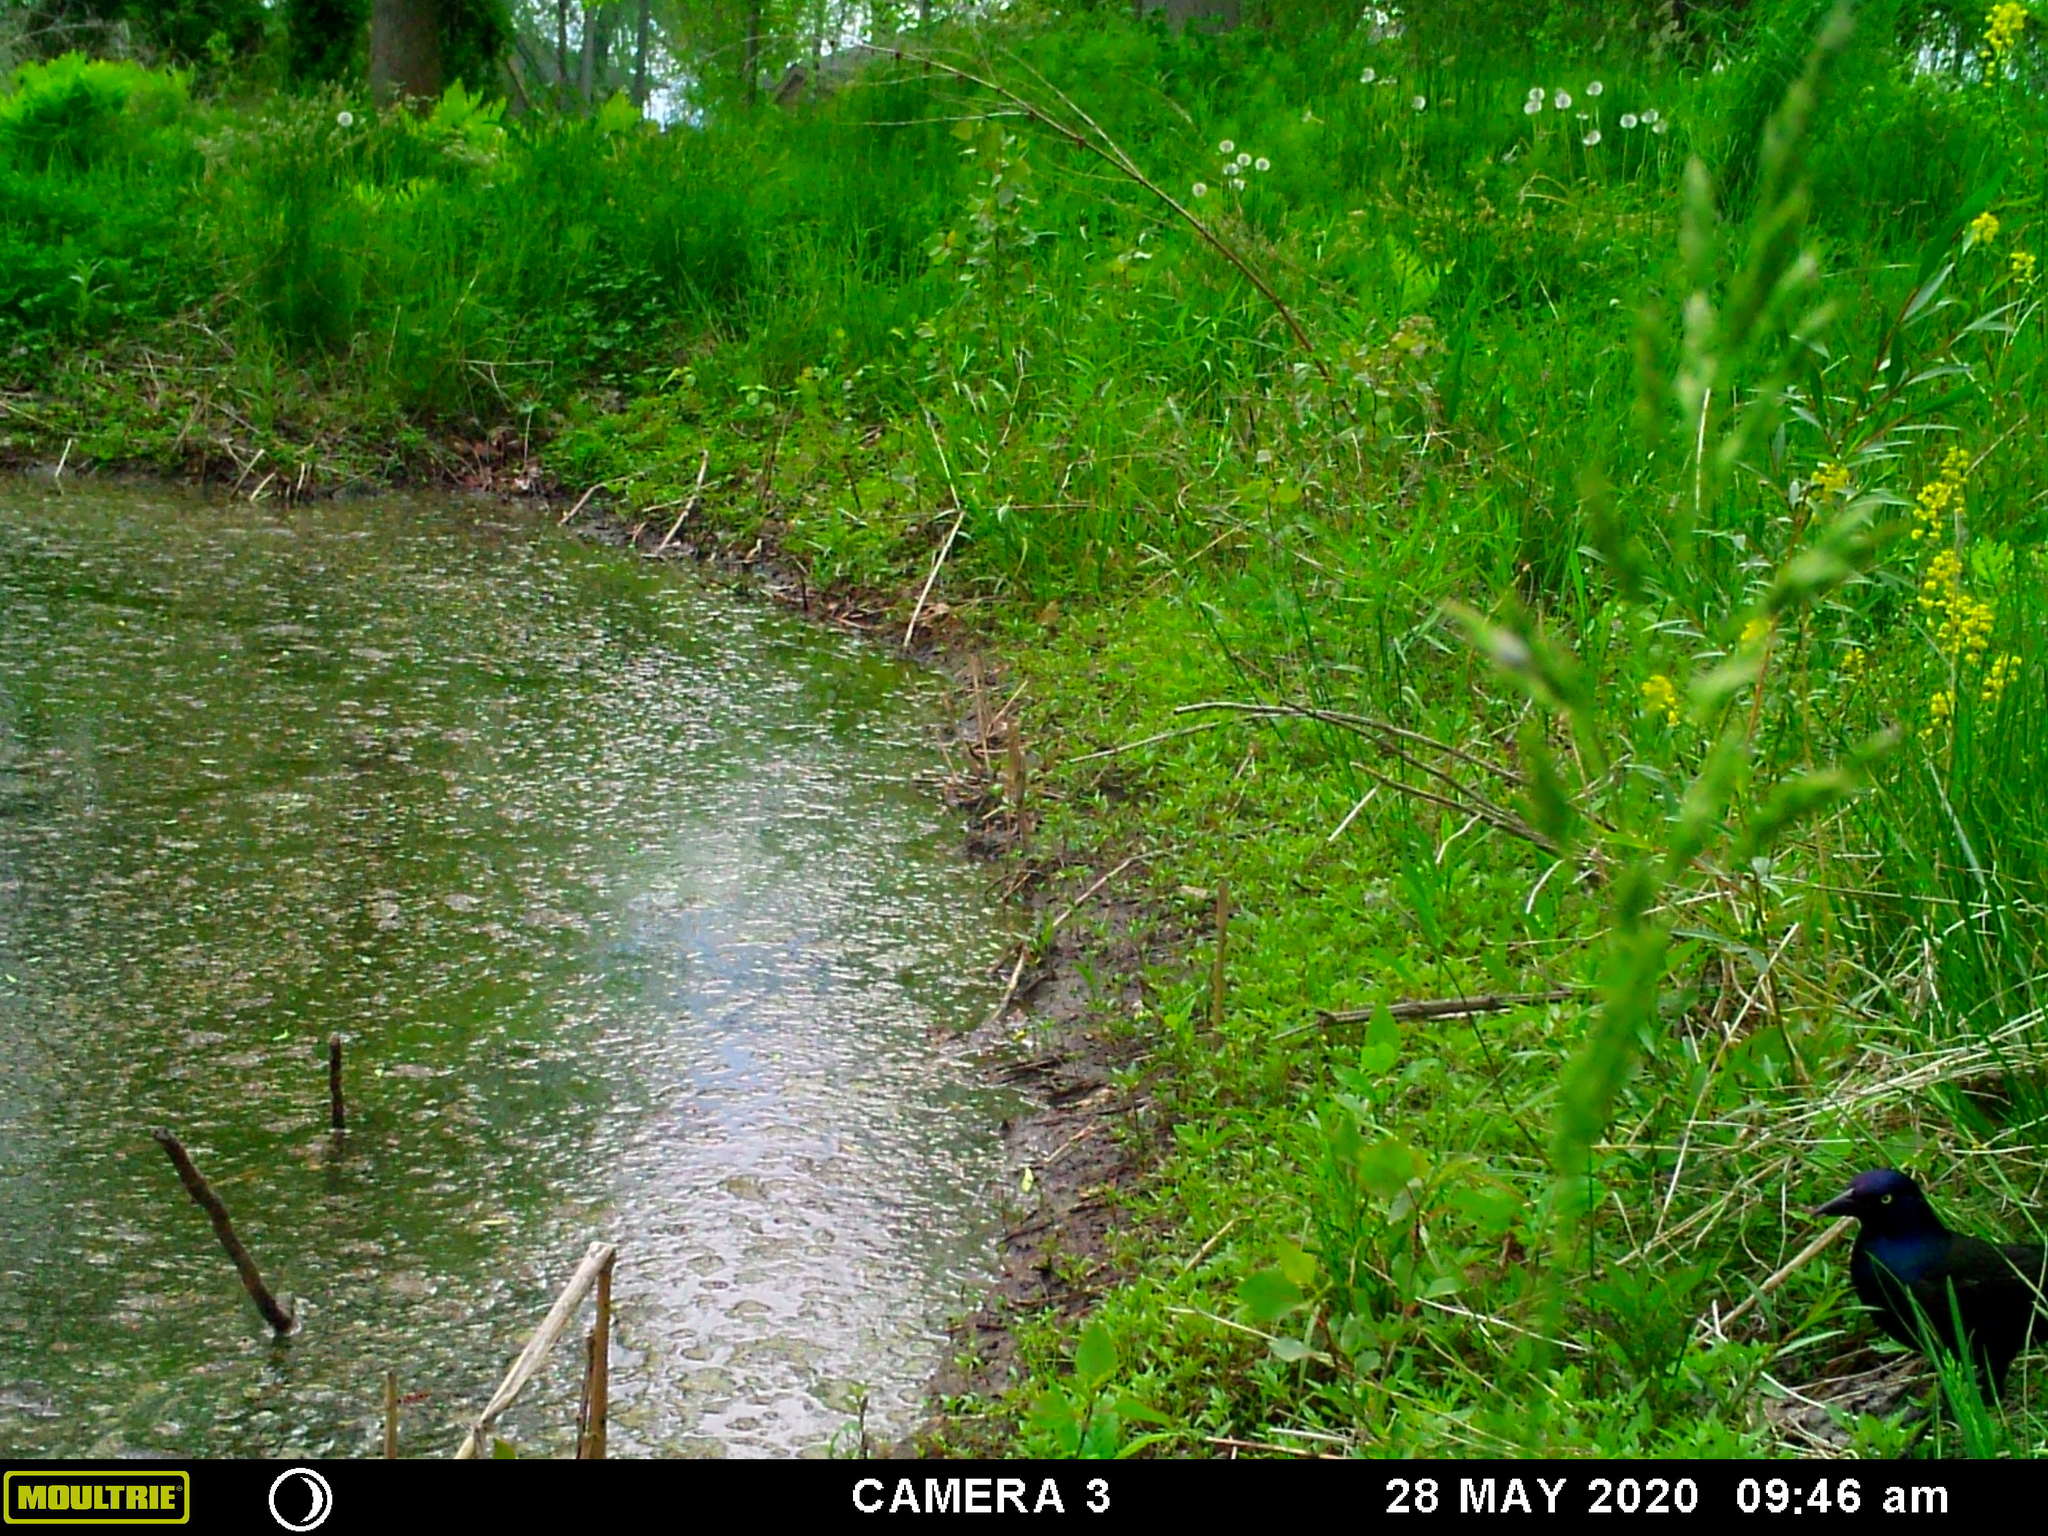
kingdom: Animalia
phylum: Chordata
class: Aves
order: Passeriformes
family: Icteridae
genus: Quiscalus
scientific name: Quiscalus quiscula
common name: Common grackle
